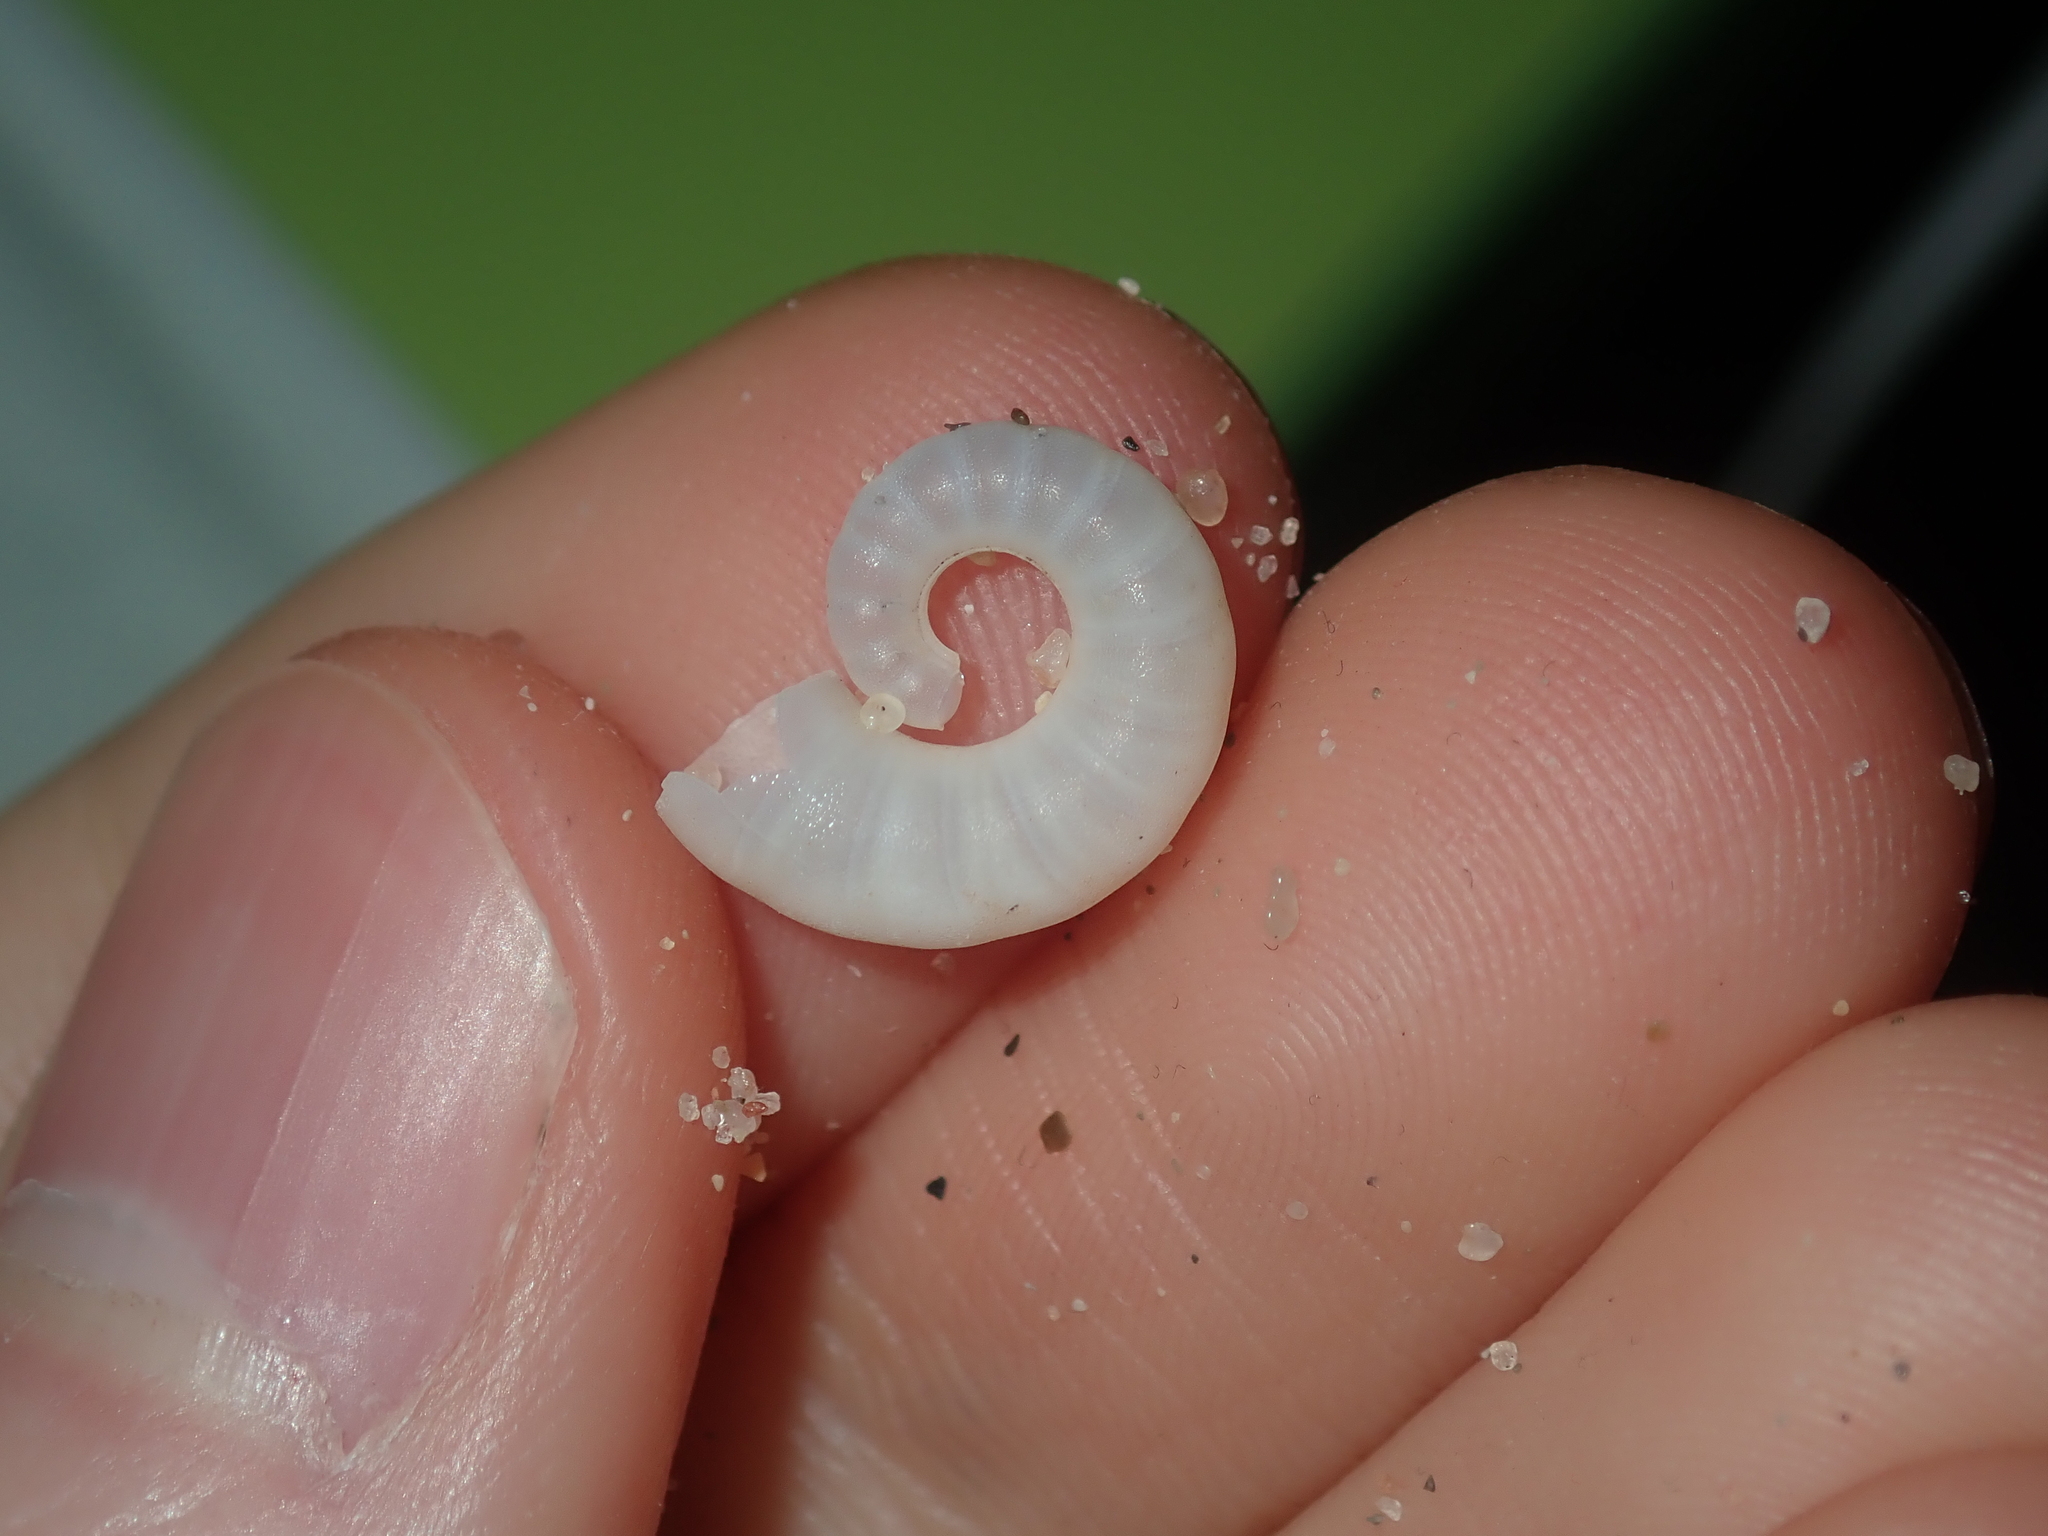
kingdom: Animalia
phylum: Mollusca
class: Cephalopoda
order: Spirulida
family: Spirulidae
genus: Spirula
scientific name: Spirula spirula
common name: Ram's horn squid
